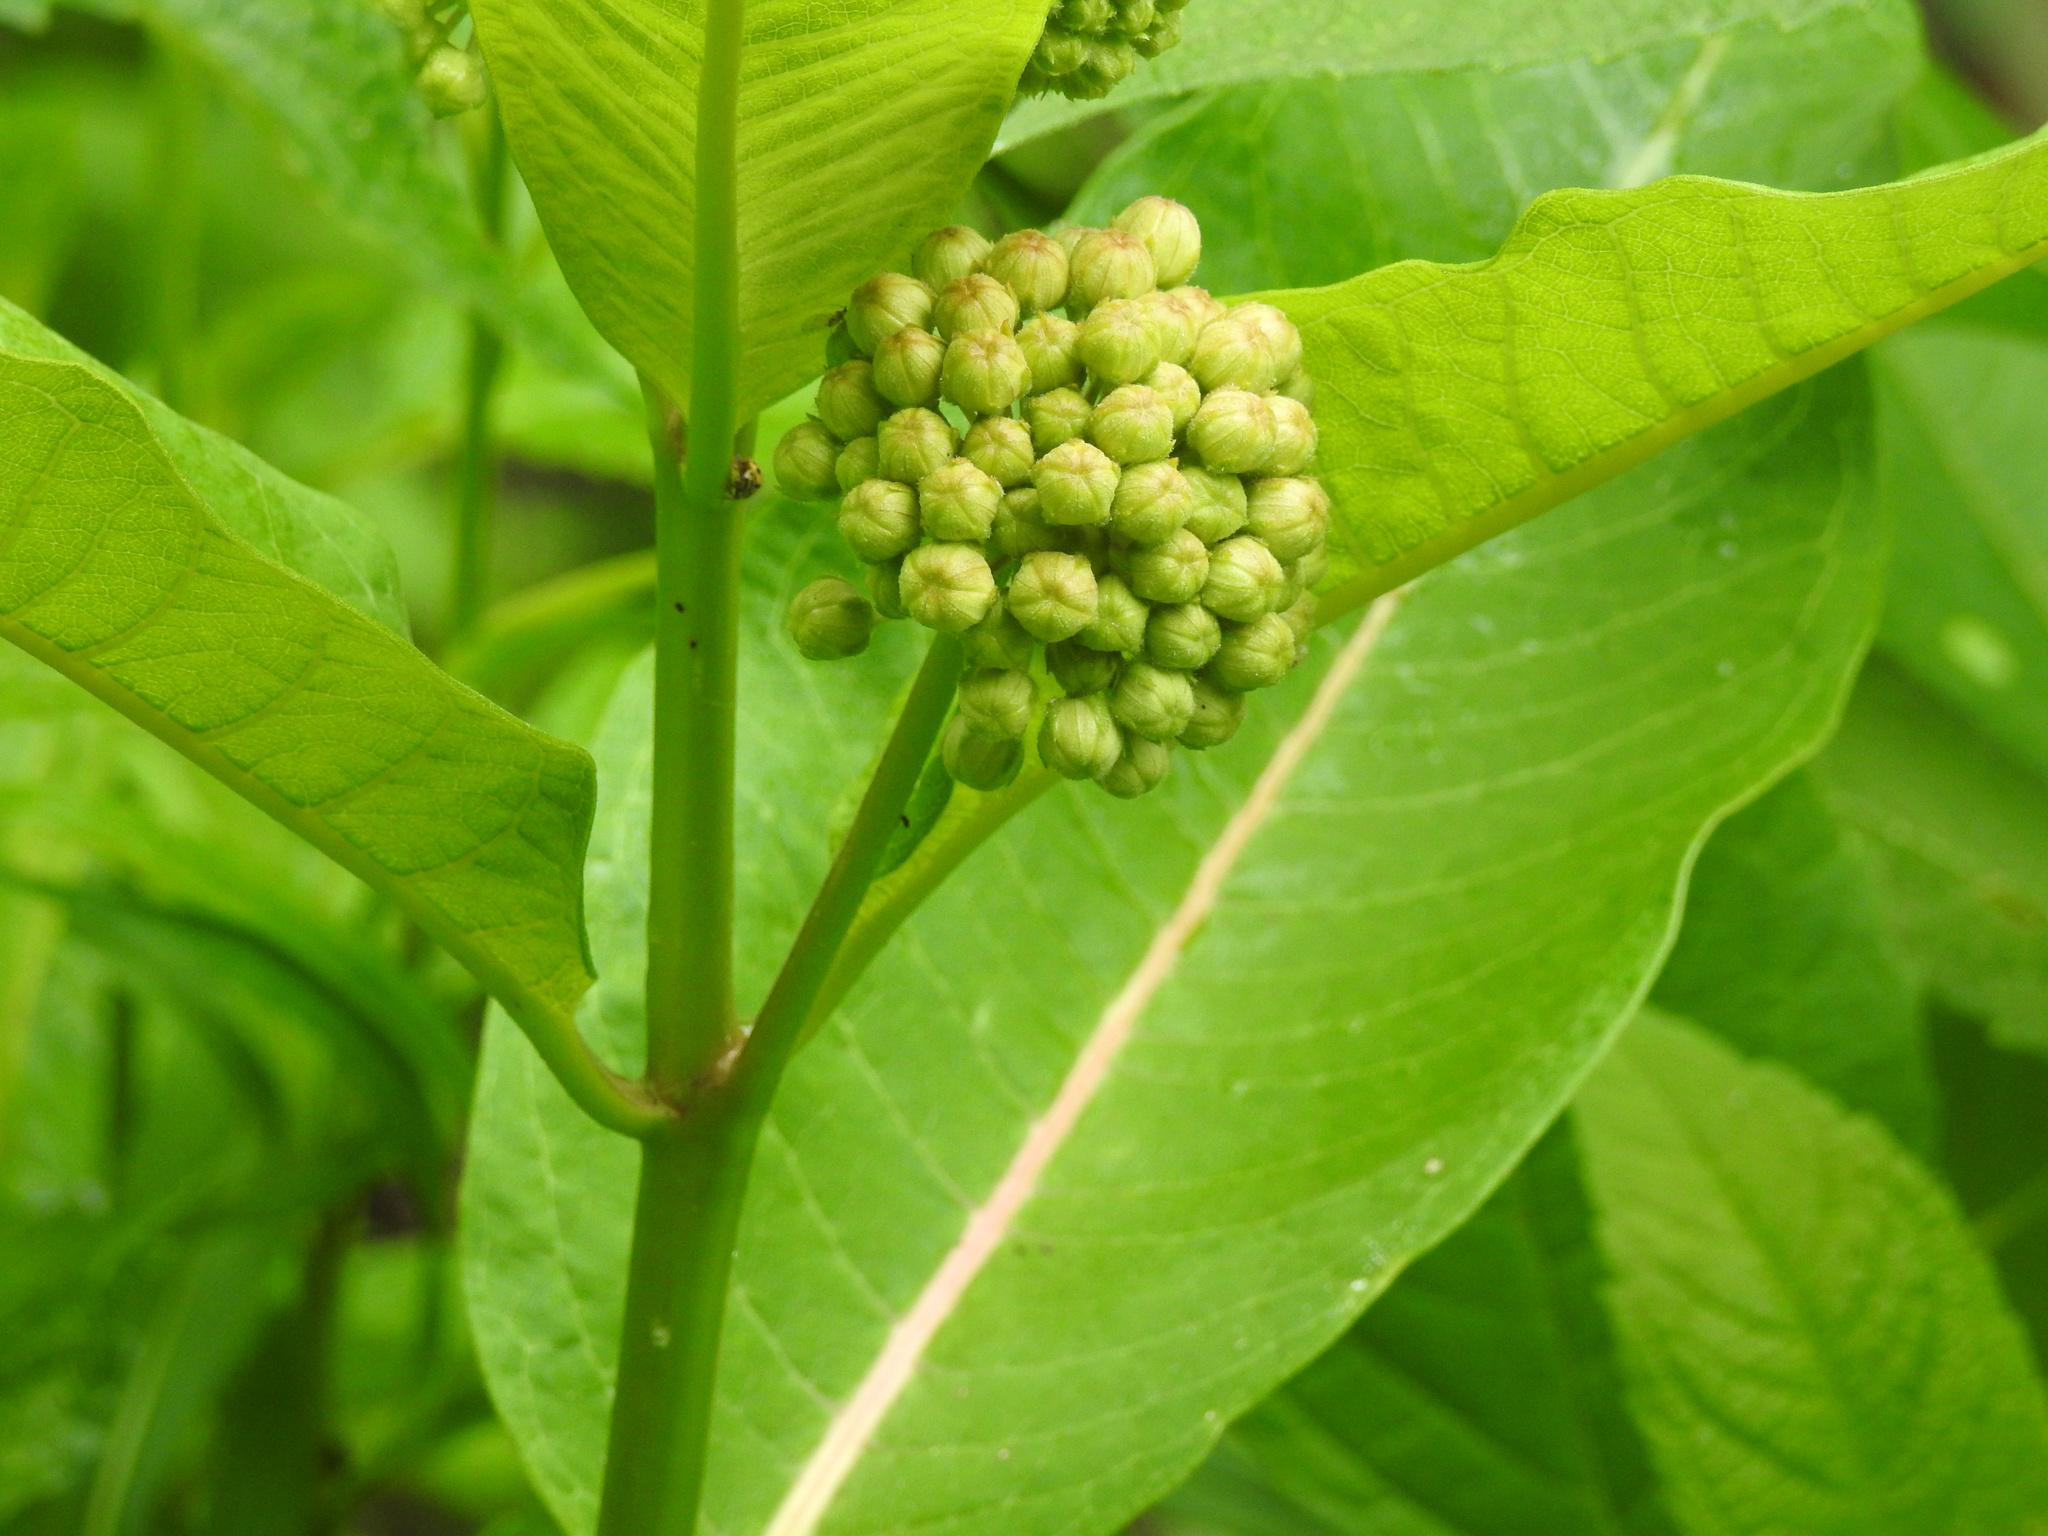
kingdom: Plantae
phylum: Tracheophyta
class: Magnoliopsida
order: Gentianales
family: Apocynaceae
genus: Asclepias
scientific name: Asclepias syriaca
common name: Common milkweed
